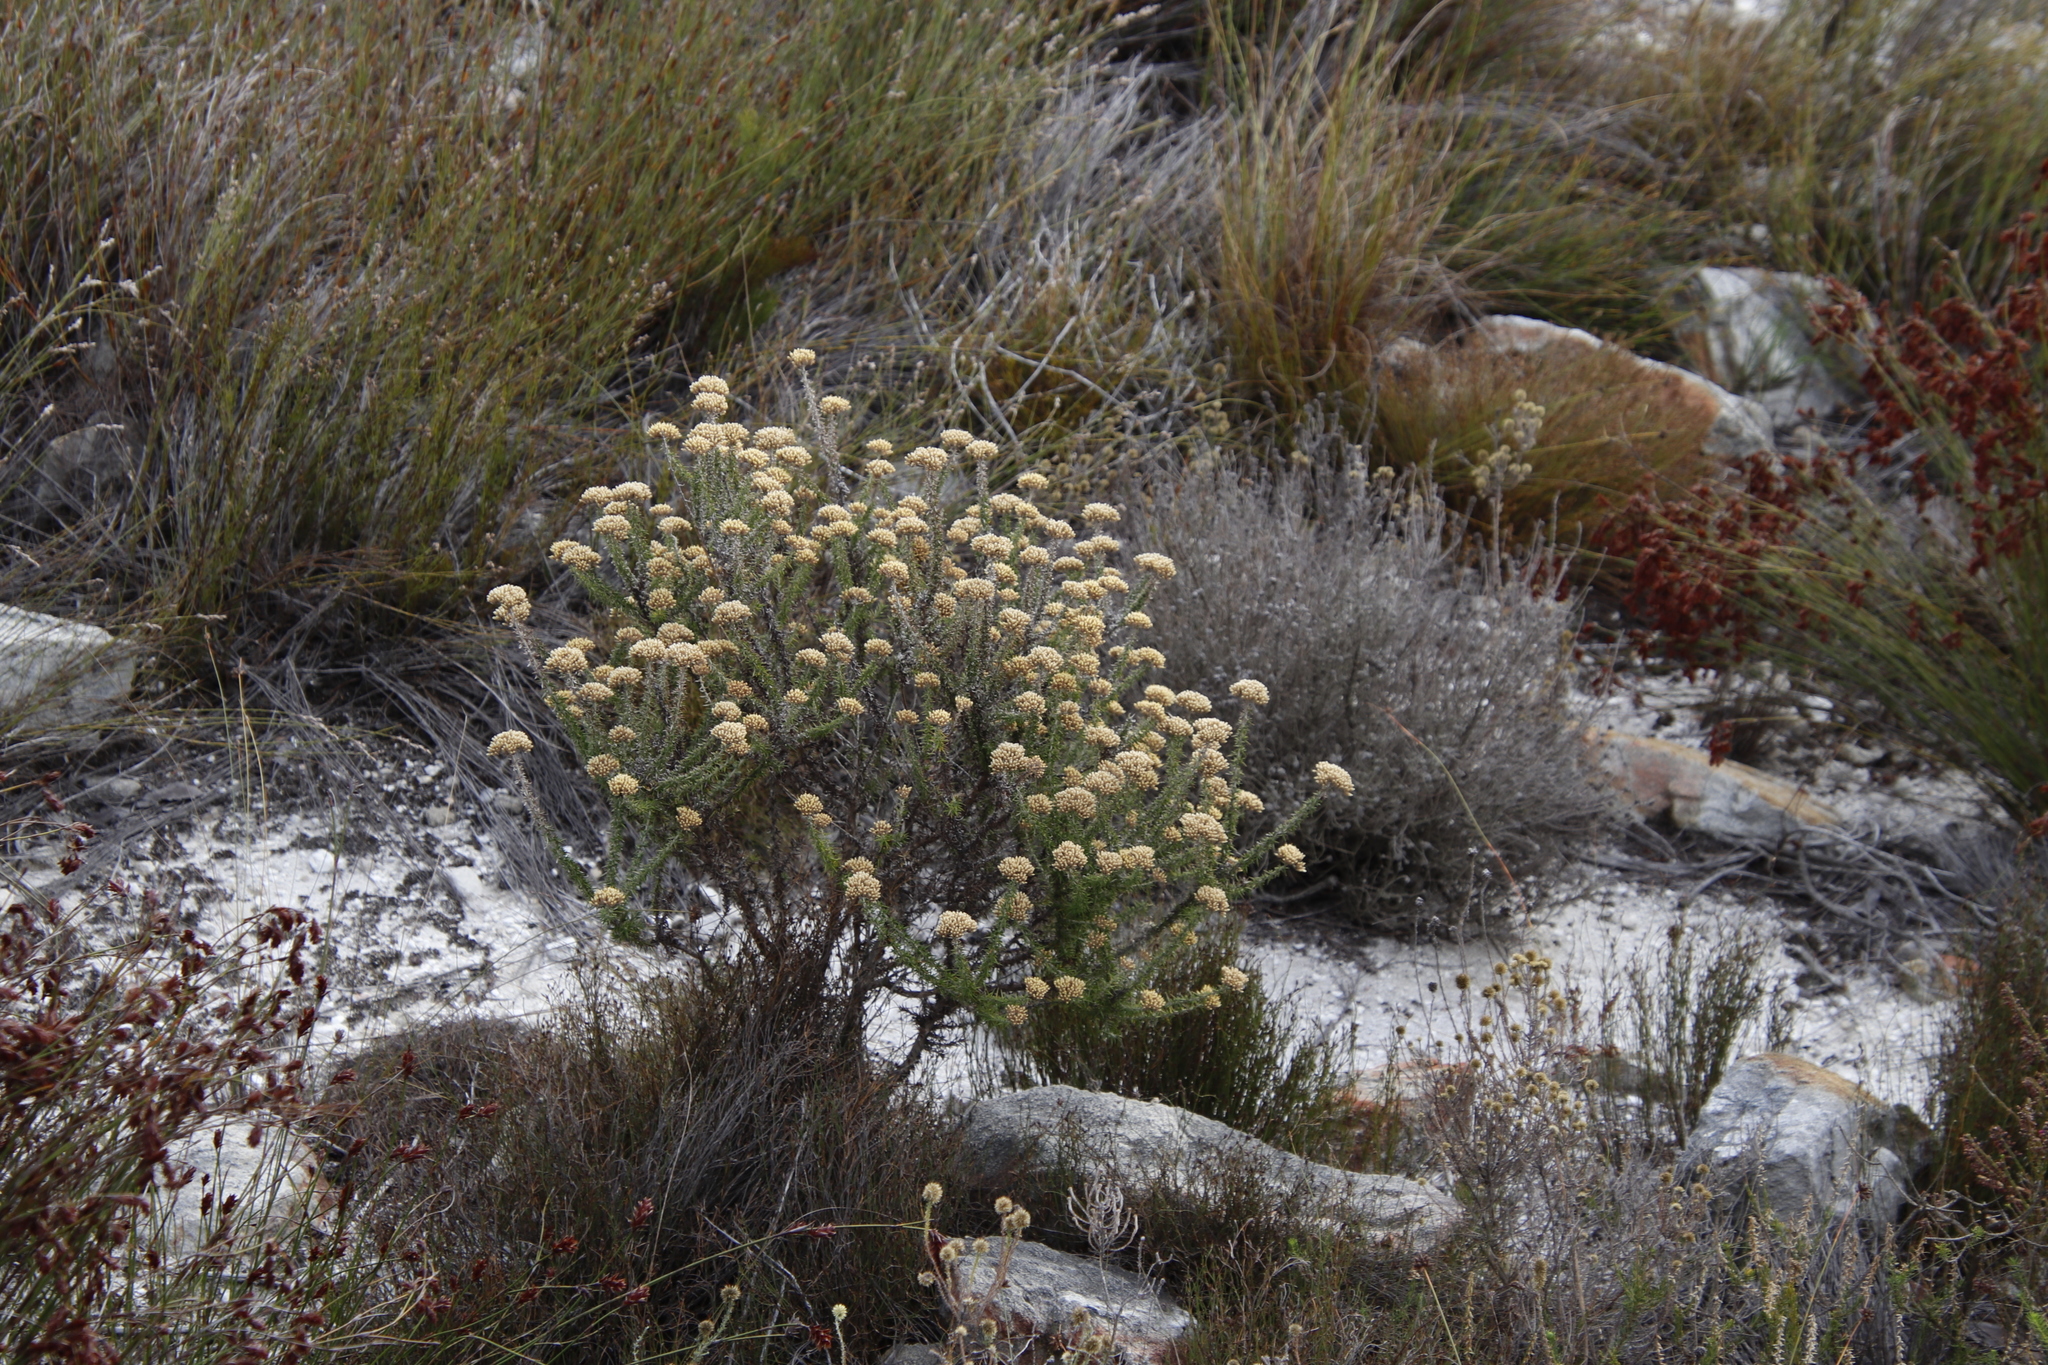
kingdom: Plantae
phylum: Tracheophyta
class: Magnoliopsida
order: Asterales
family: Asteraceae
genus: Metalasia
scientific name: Metalasia densa
